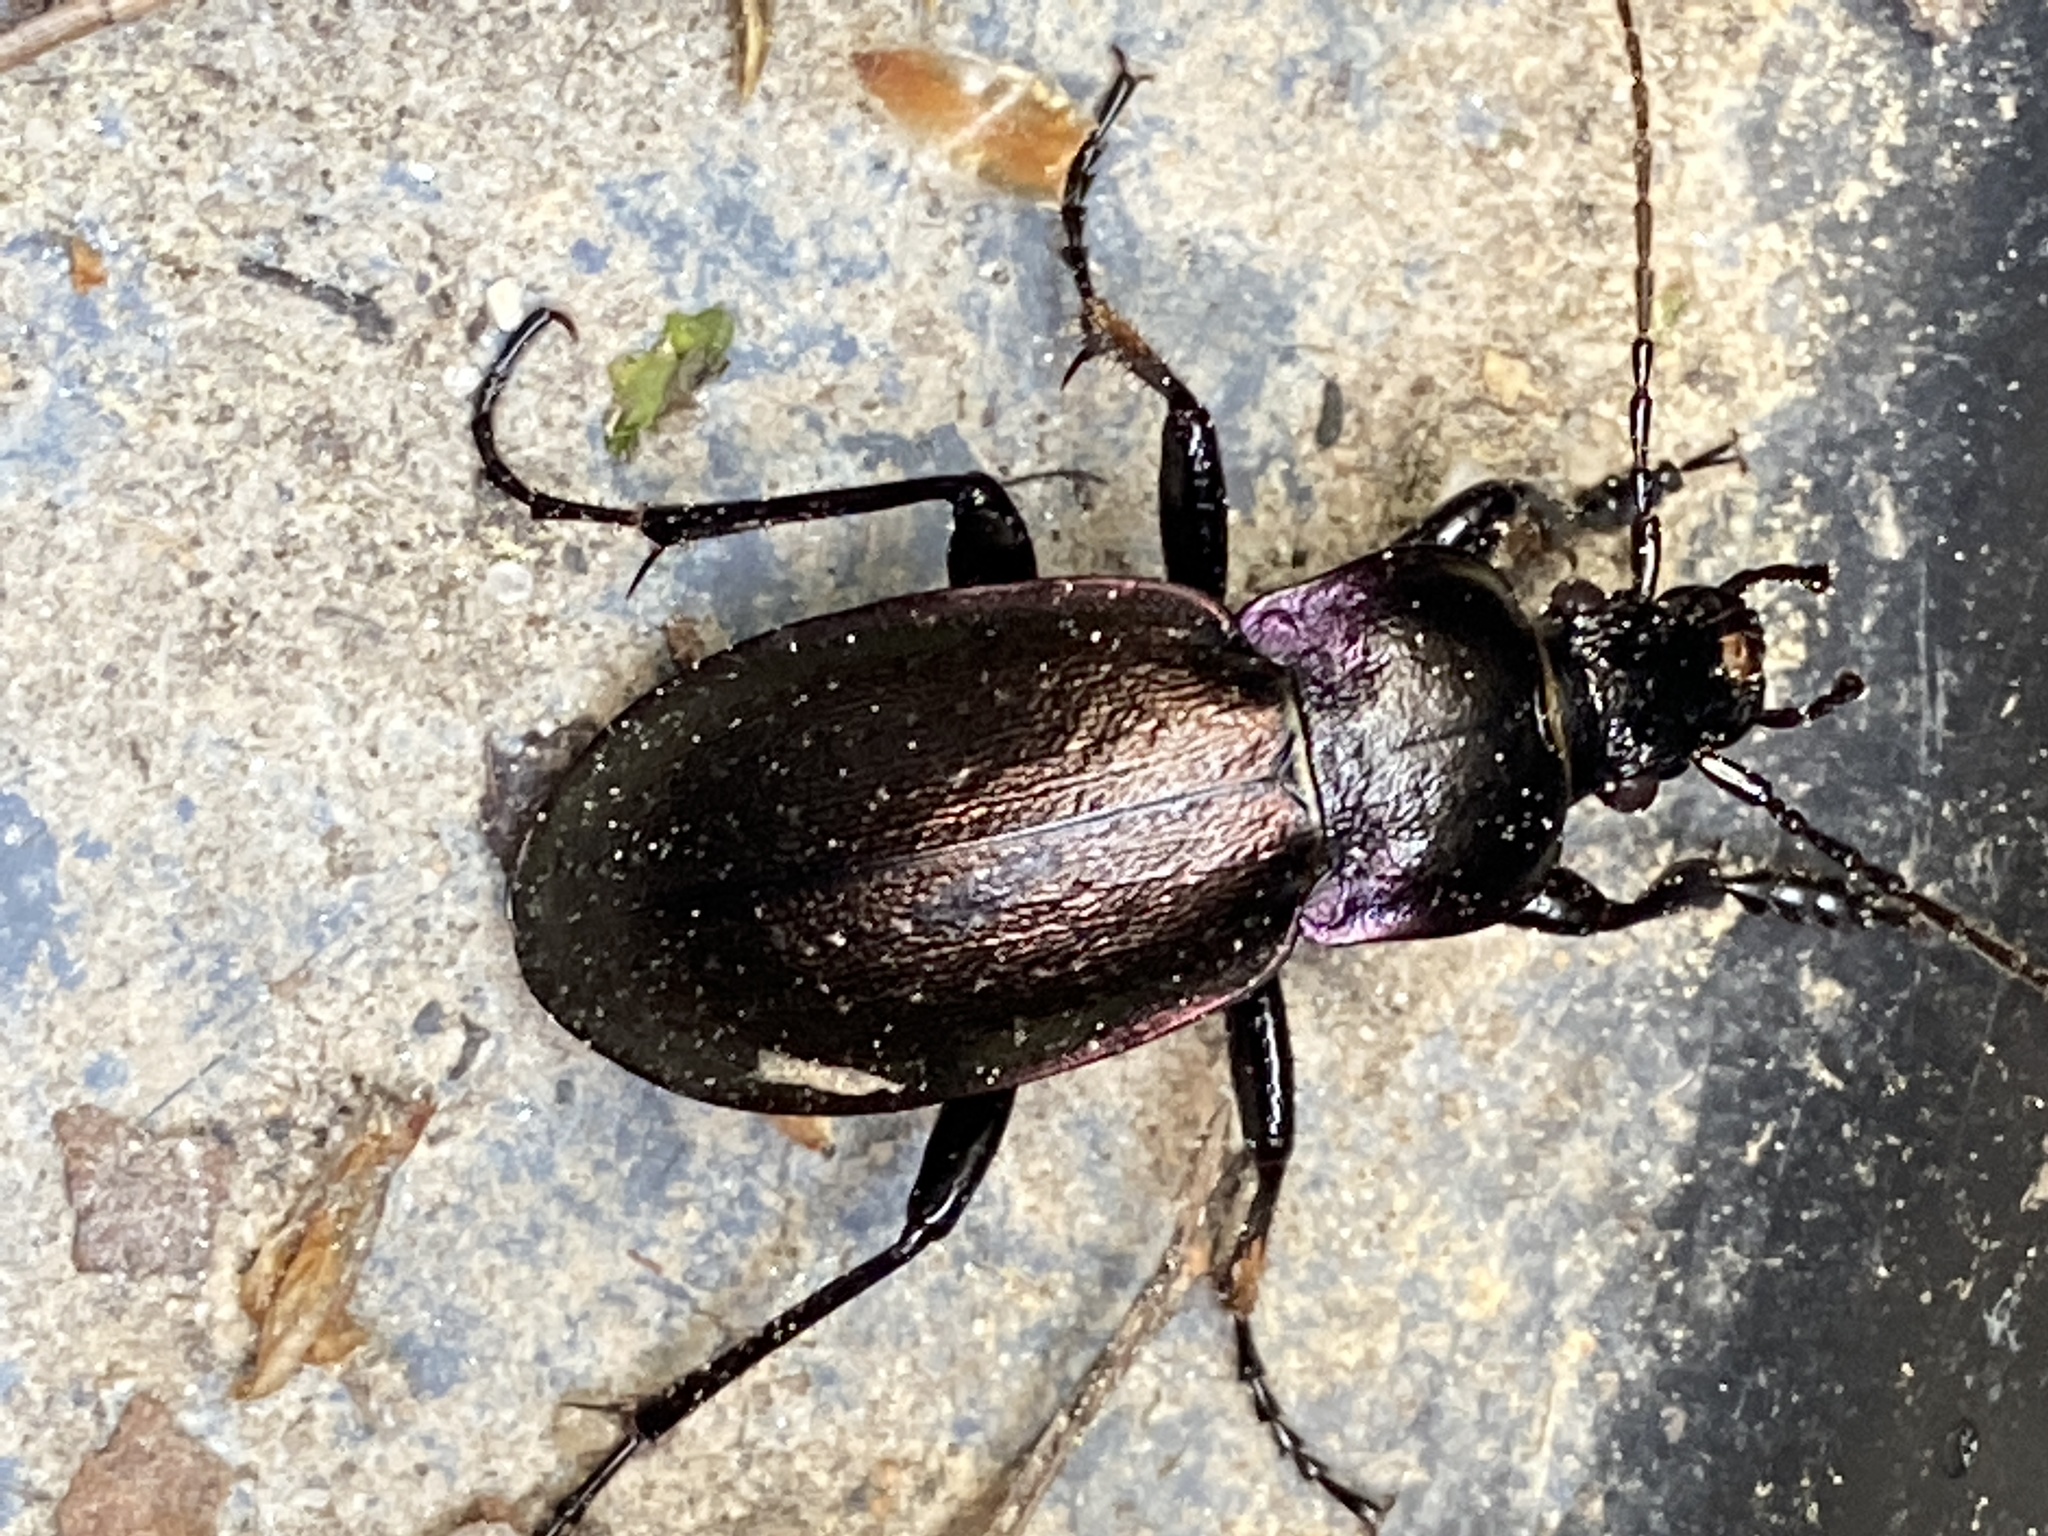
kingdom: Animalia
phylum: Arthropoda
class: Insecta
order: Coleoptera
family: Carabidae
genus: Carabus
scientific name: Carabus nemoralis
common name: European ground beetle
